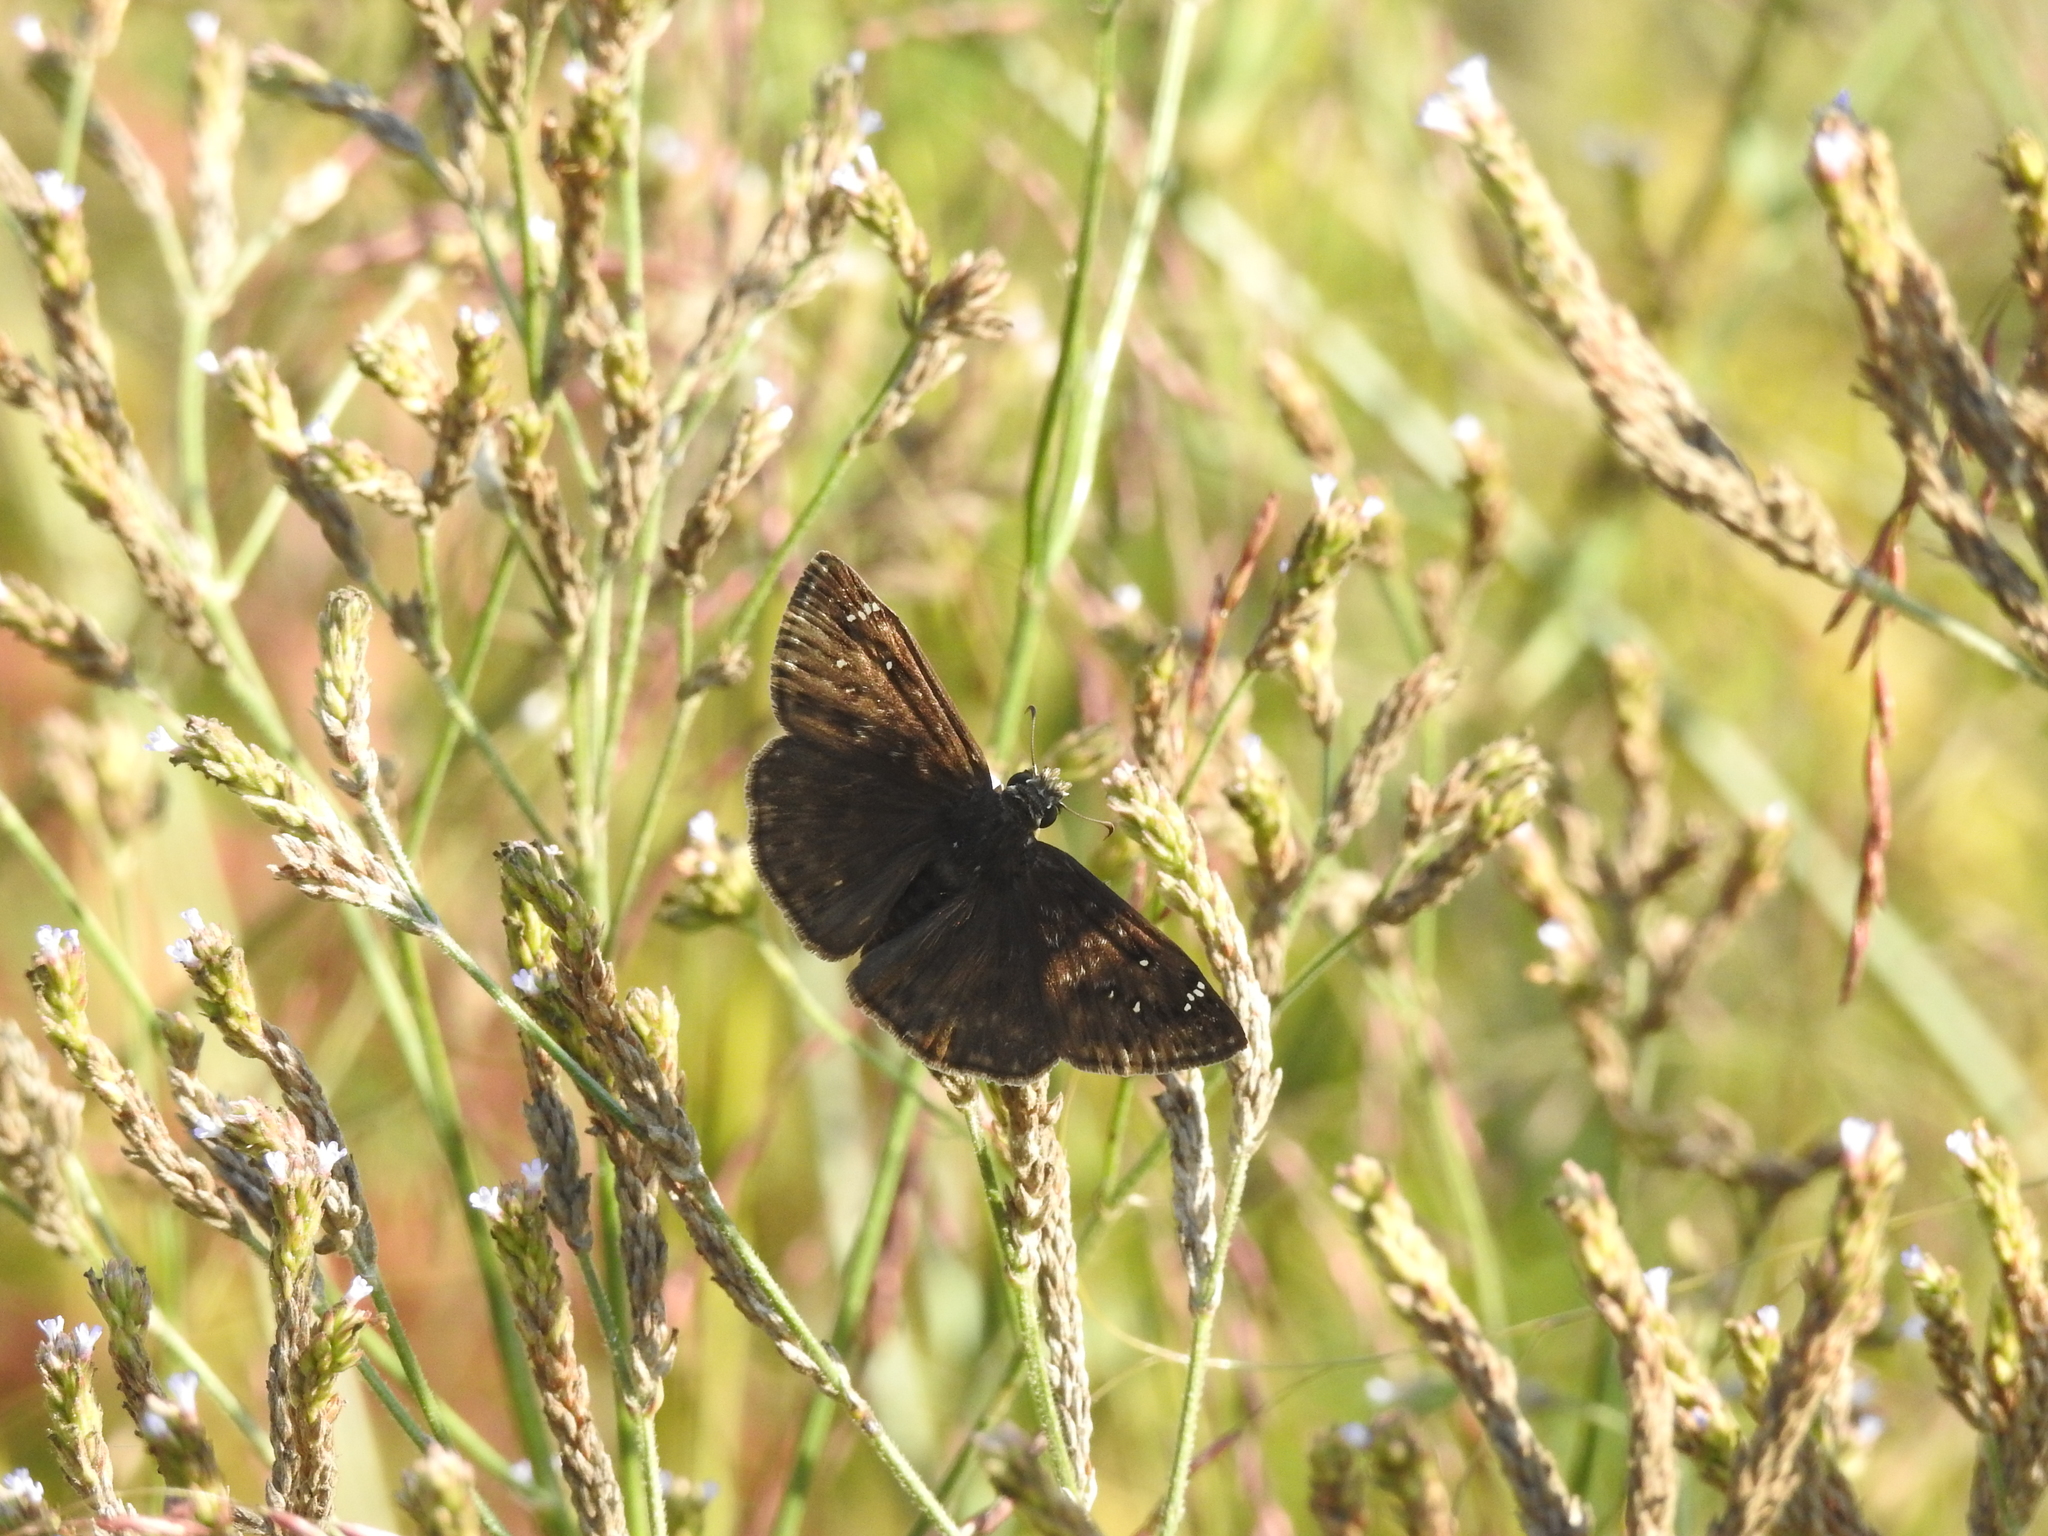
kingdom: Animalia
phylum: Arthropoda
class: Insecta
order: Lepidoptera
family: Hesperiidae
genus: Erynnis
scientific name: Erynnis horatius
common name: Horace's duskywing
